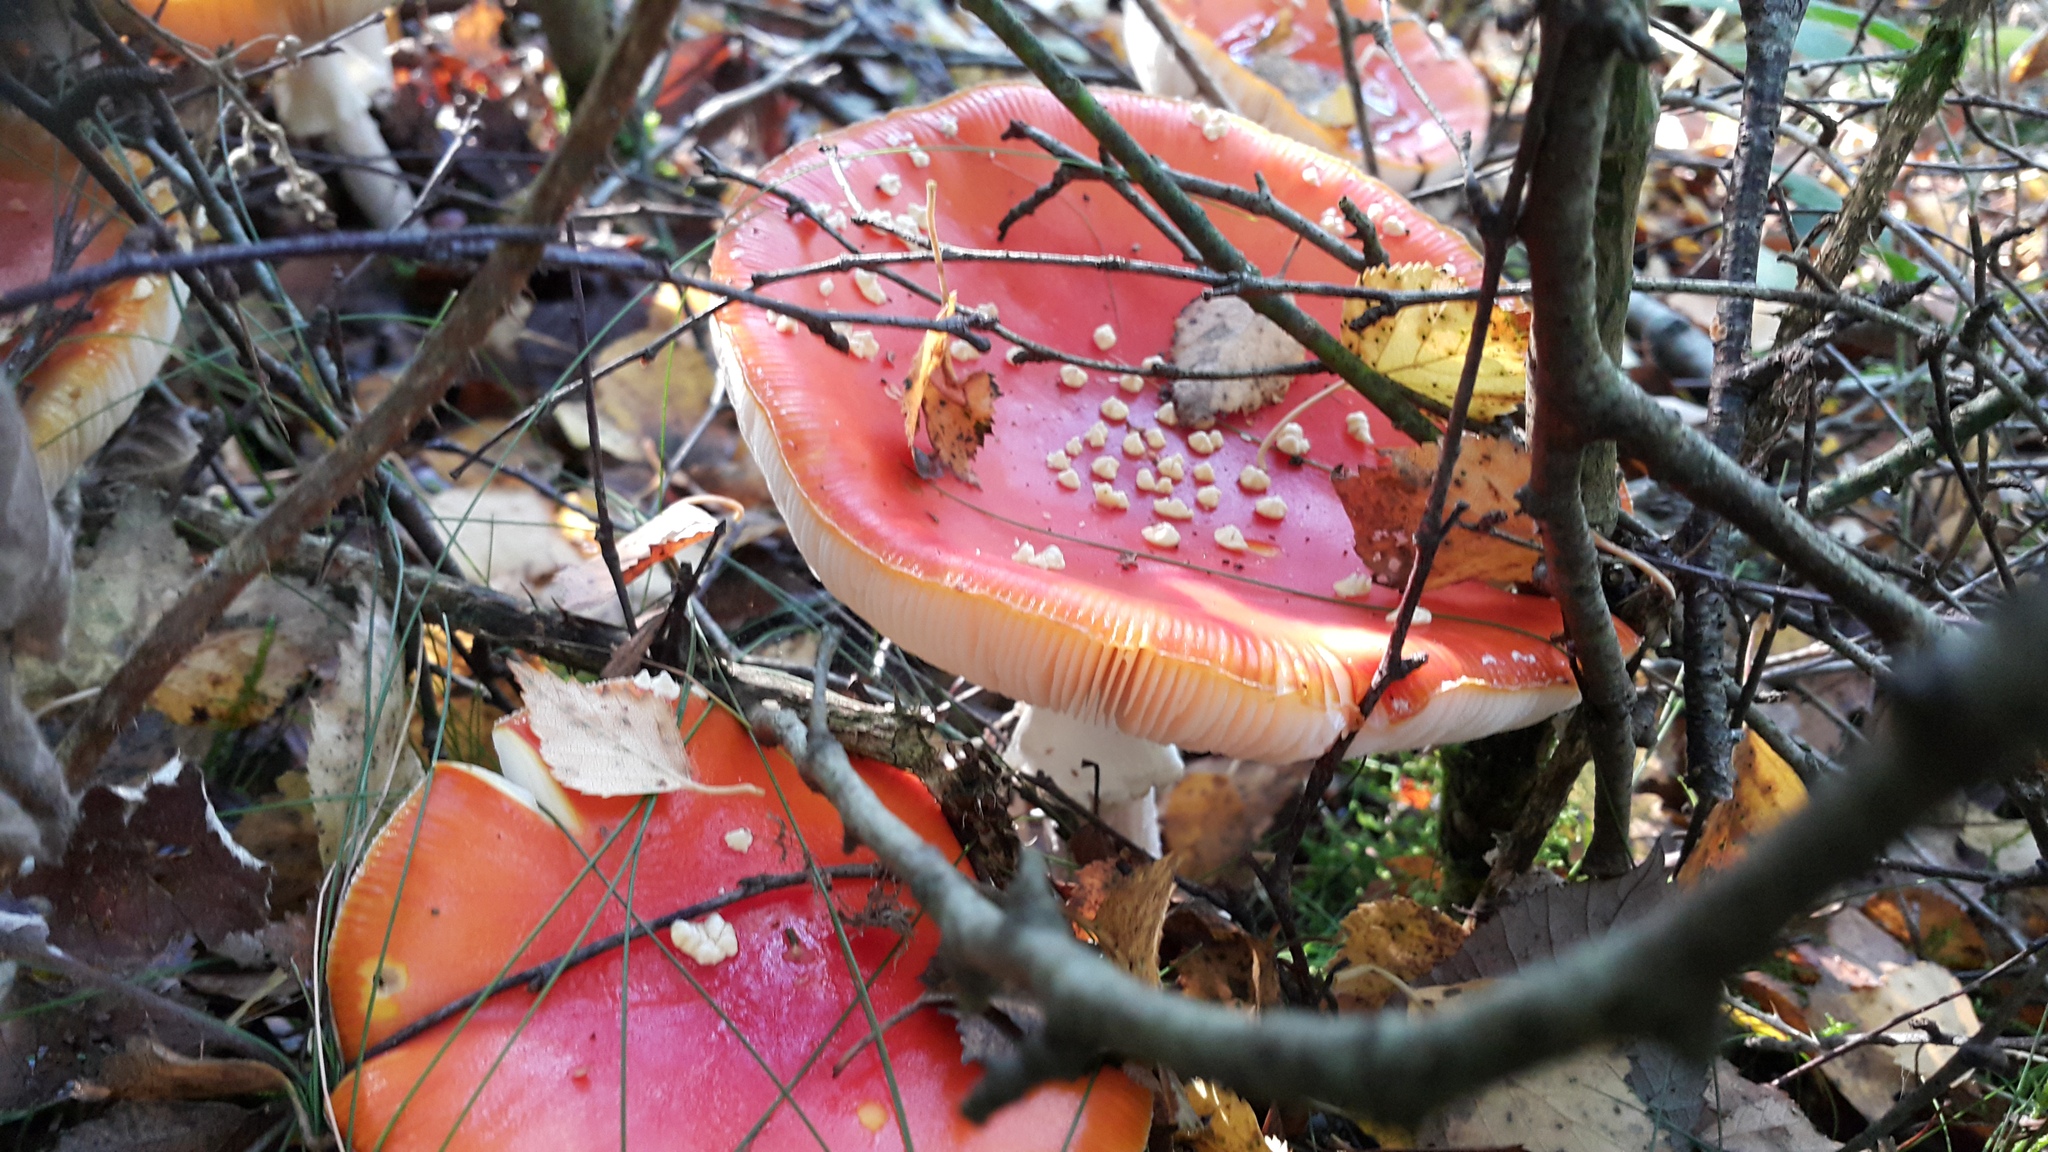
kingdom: Fungi
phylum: Basidiomycota
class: Agaricomycetes
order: Agaricales
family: Amanitaceae
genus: Amanita
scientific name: Amanita muscaria
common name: Fly agaric
